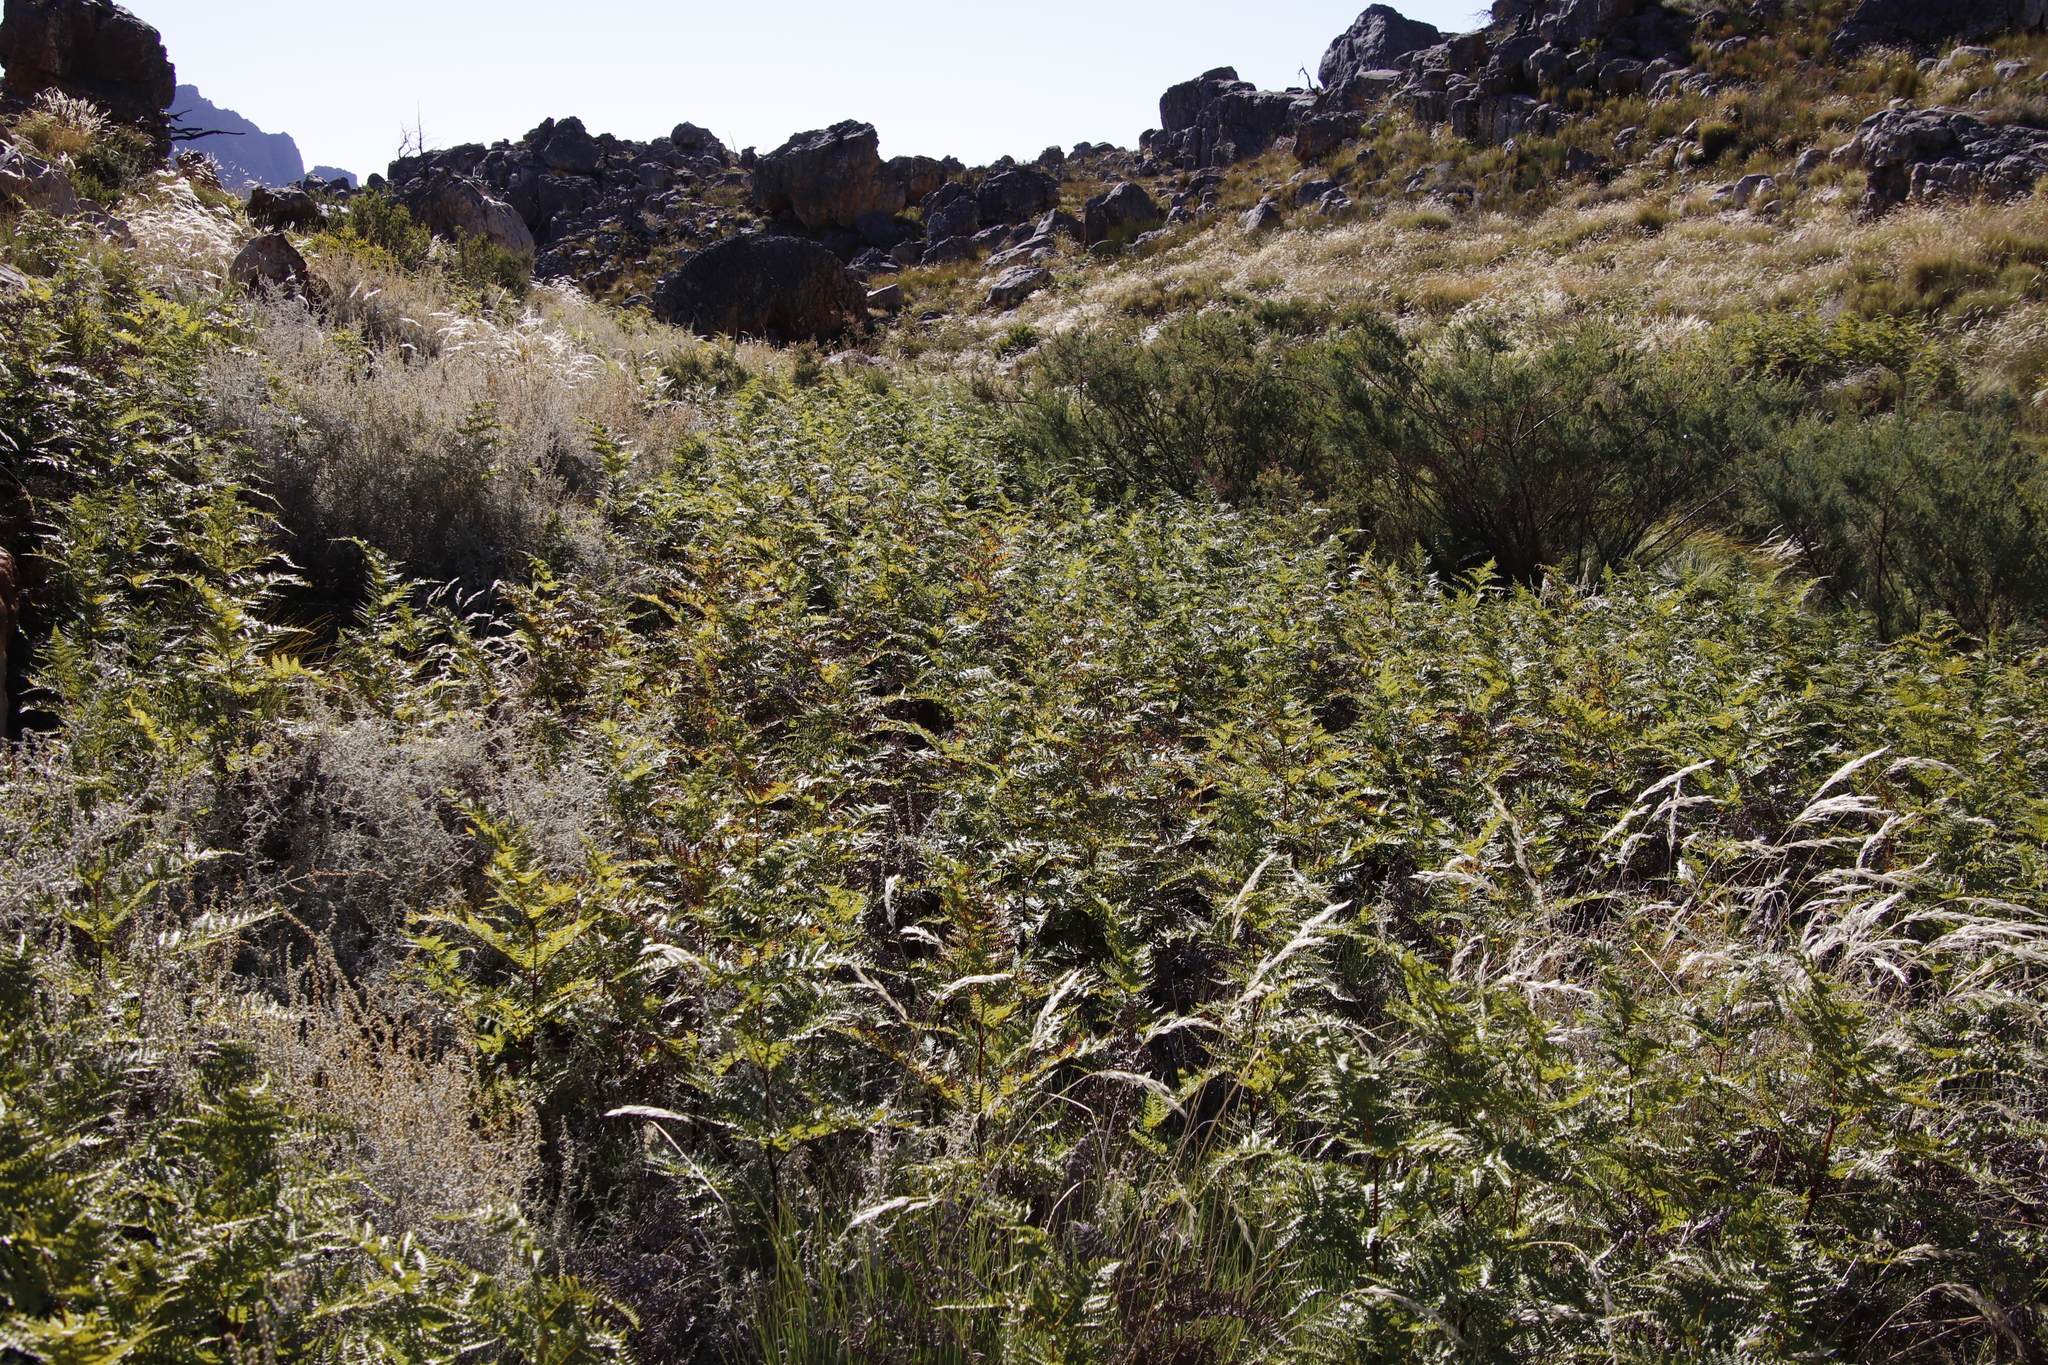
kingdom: Plantae
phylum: Tracheophyta
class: Polypodiopsida
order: Polypodiales
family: Dennstaedtiaceae
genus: Pteridium
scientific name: Pteridium aquilinum
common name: Bracken
